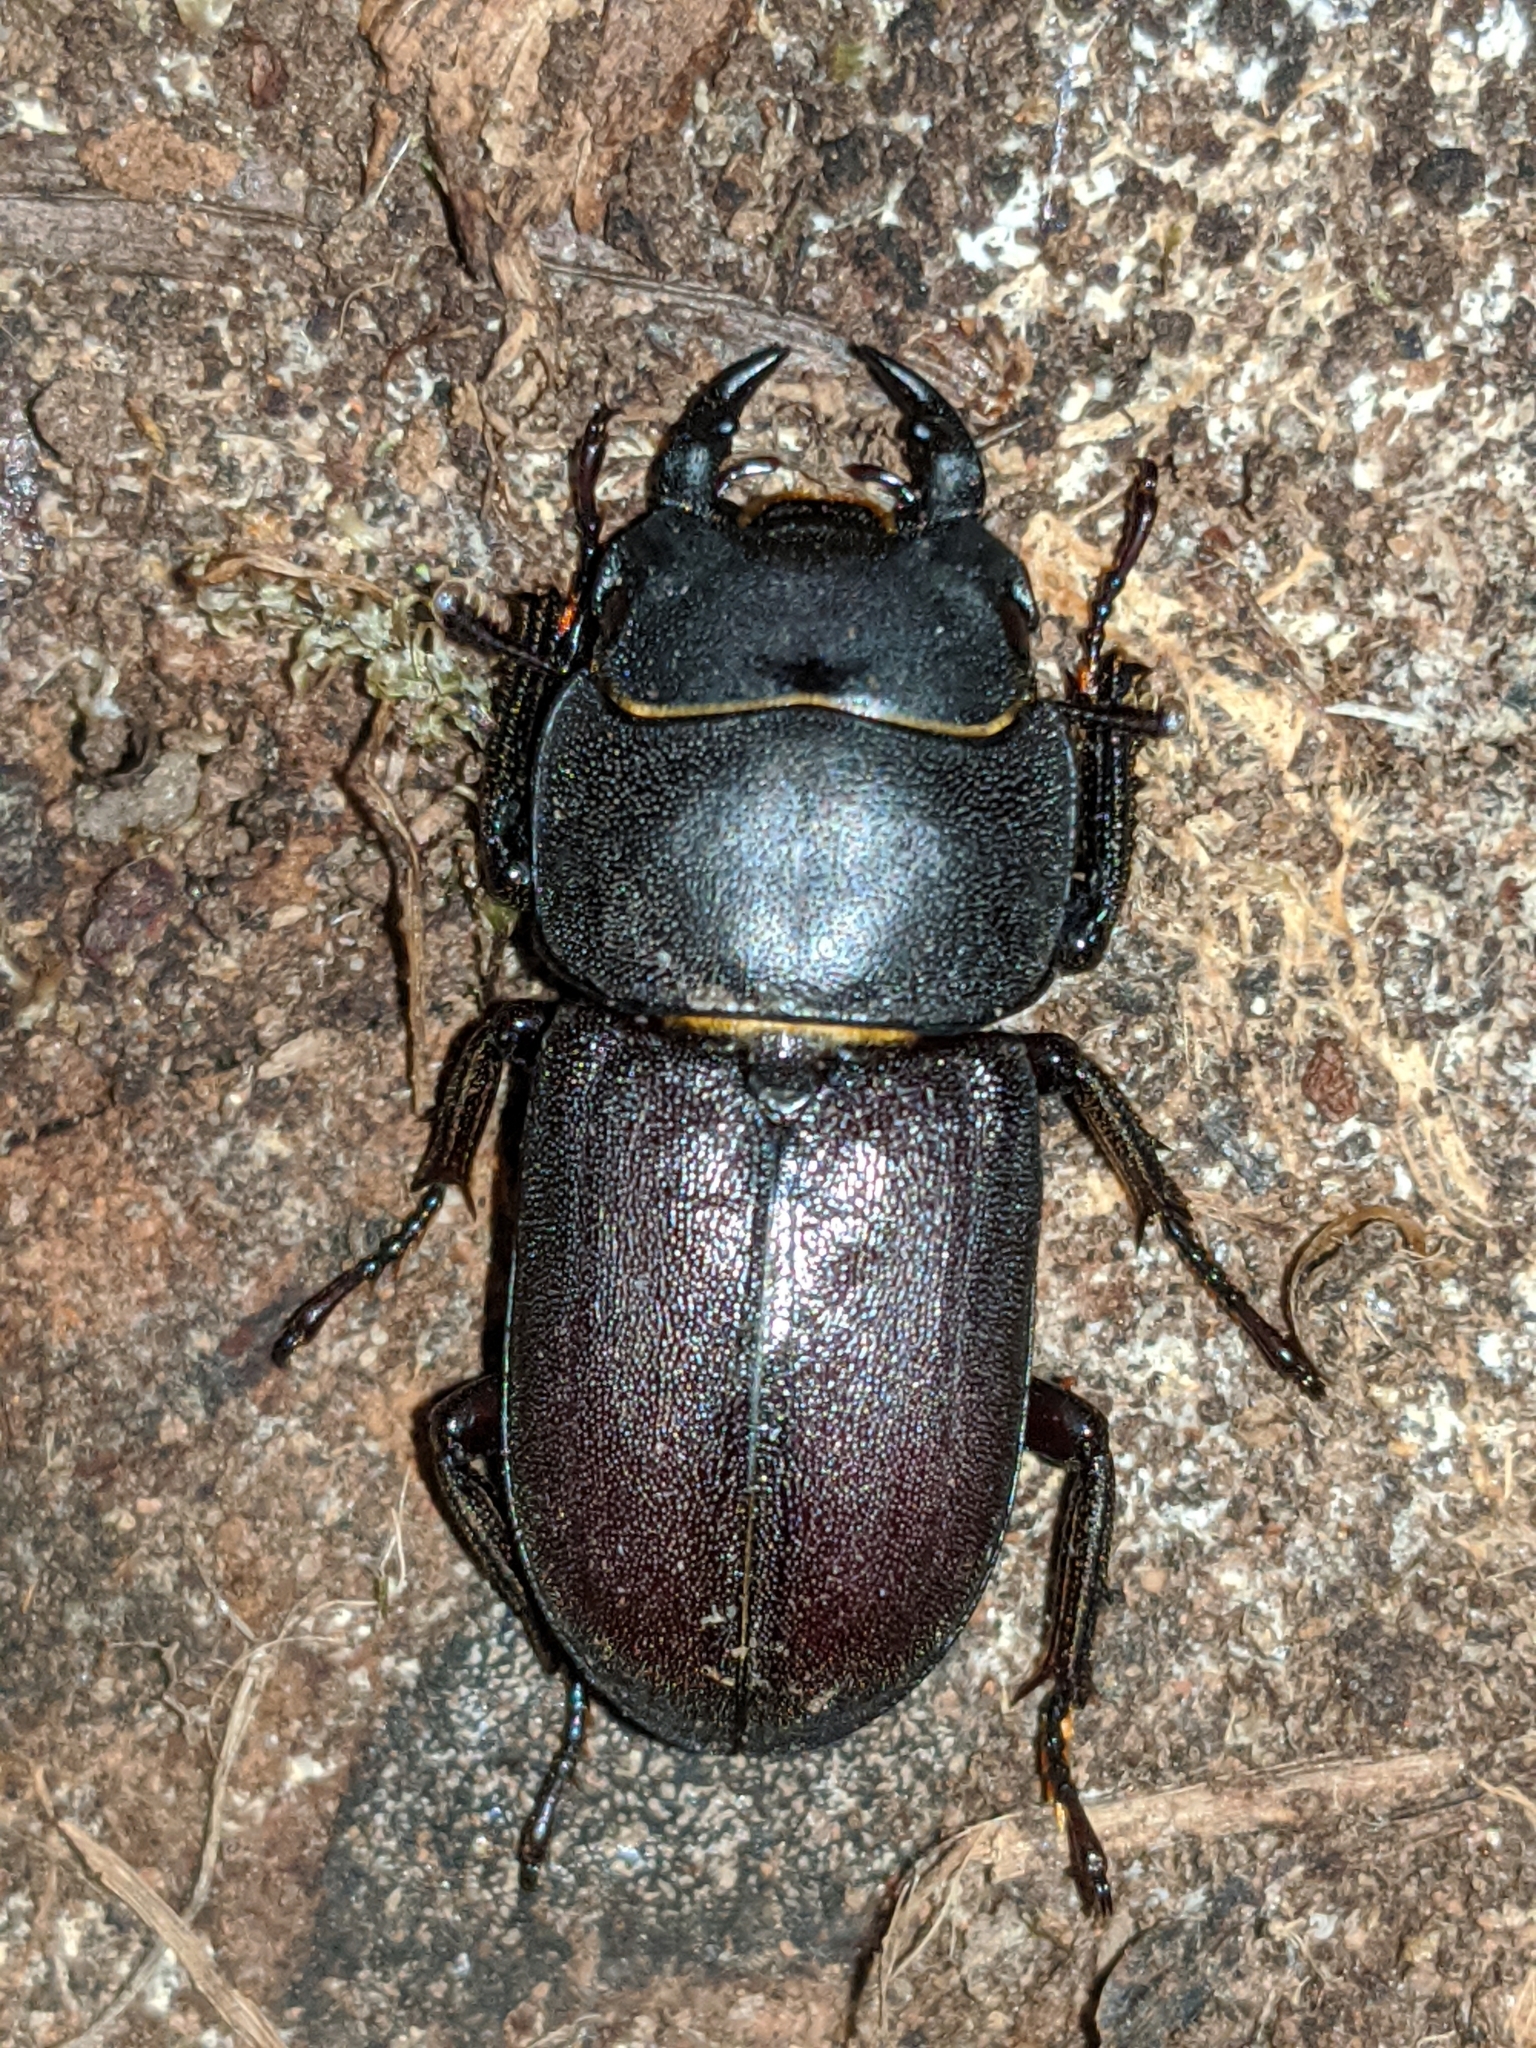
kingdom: Animalia
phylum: Arthropoda
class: Insecta
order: Coleoptera
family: Lucanidae
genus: Dorcus
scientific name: Dorcus parallelipipedus
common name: Lesser stag beetle
